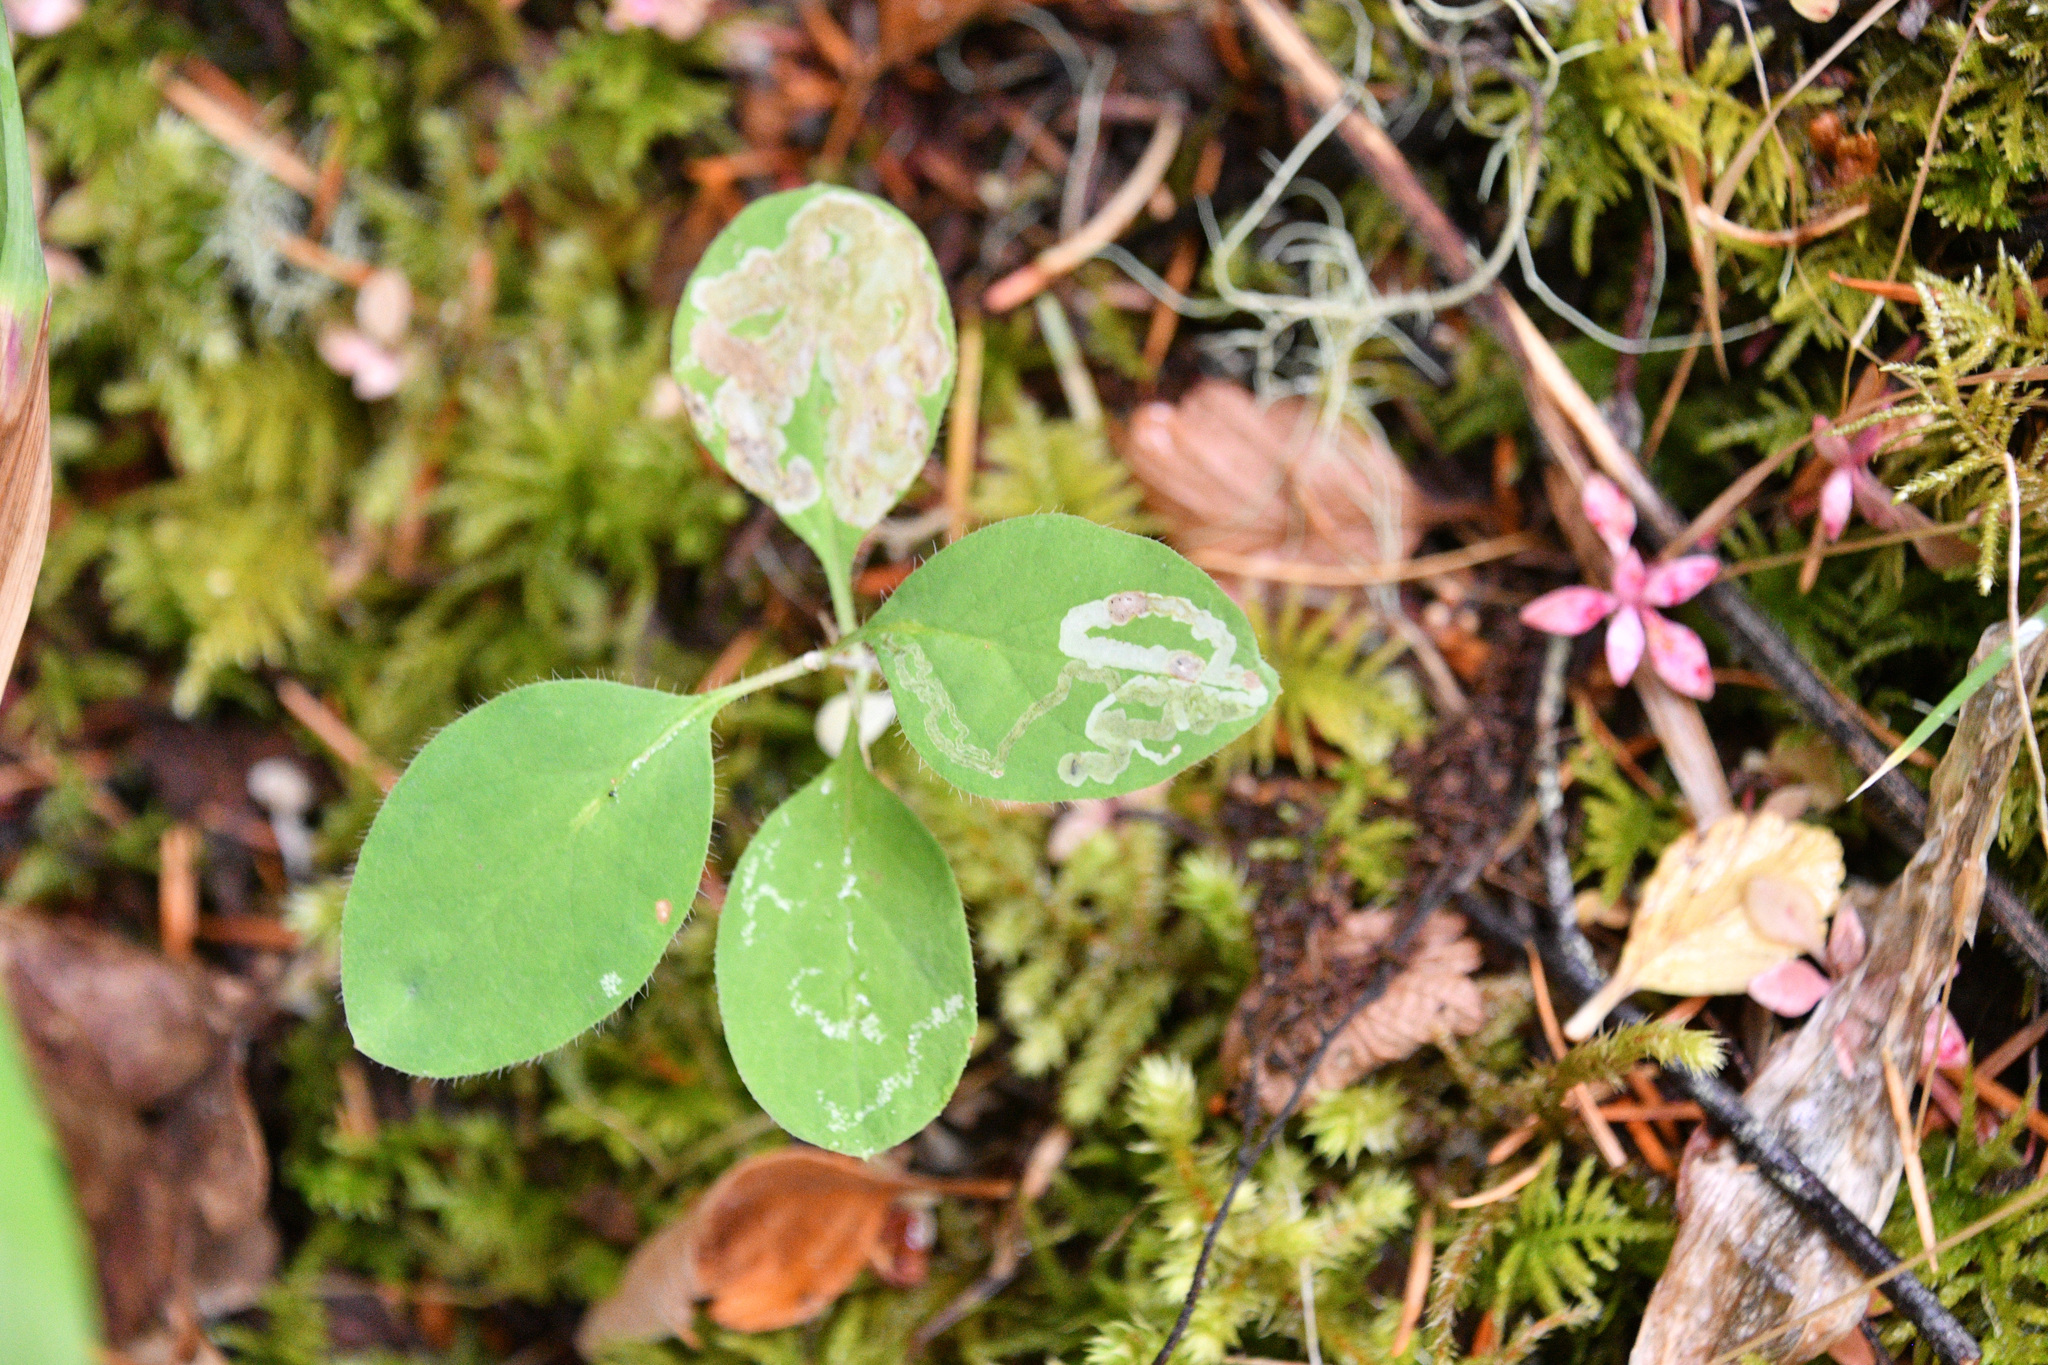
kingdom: Plantae
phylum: Tracheophyta
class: Magnoliopsida
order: Dipsacales
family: Caprifoliaceae
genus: Lonicera
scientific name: Lonicera ciliosa
